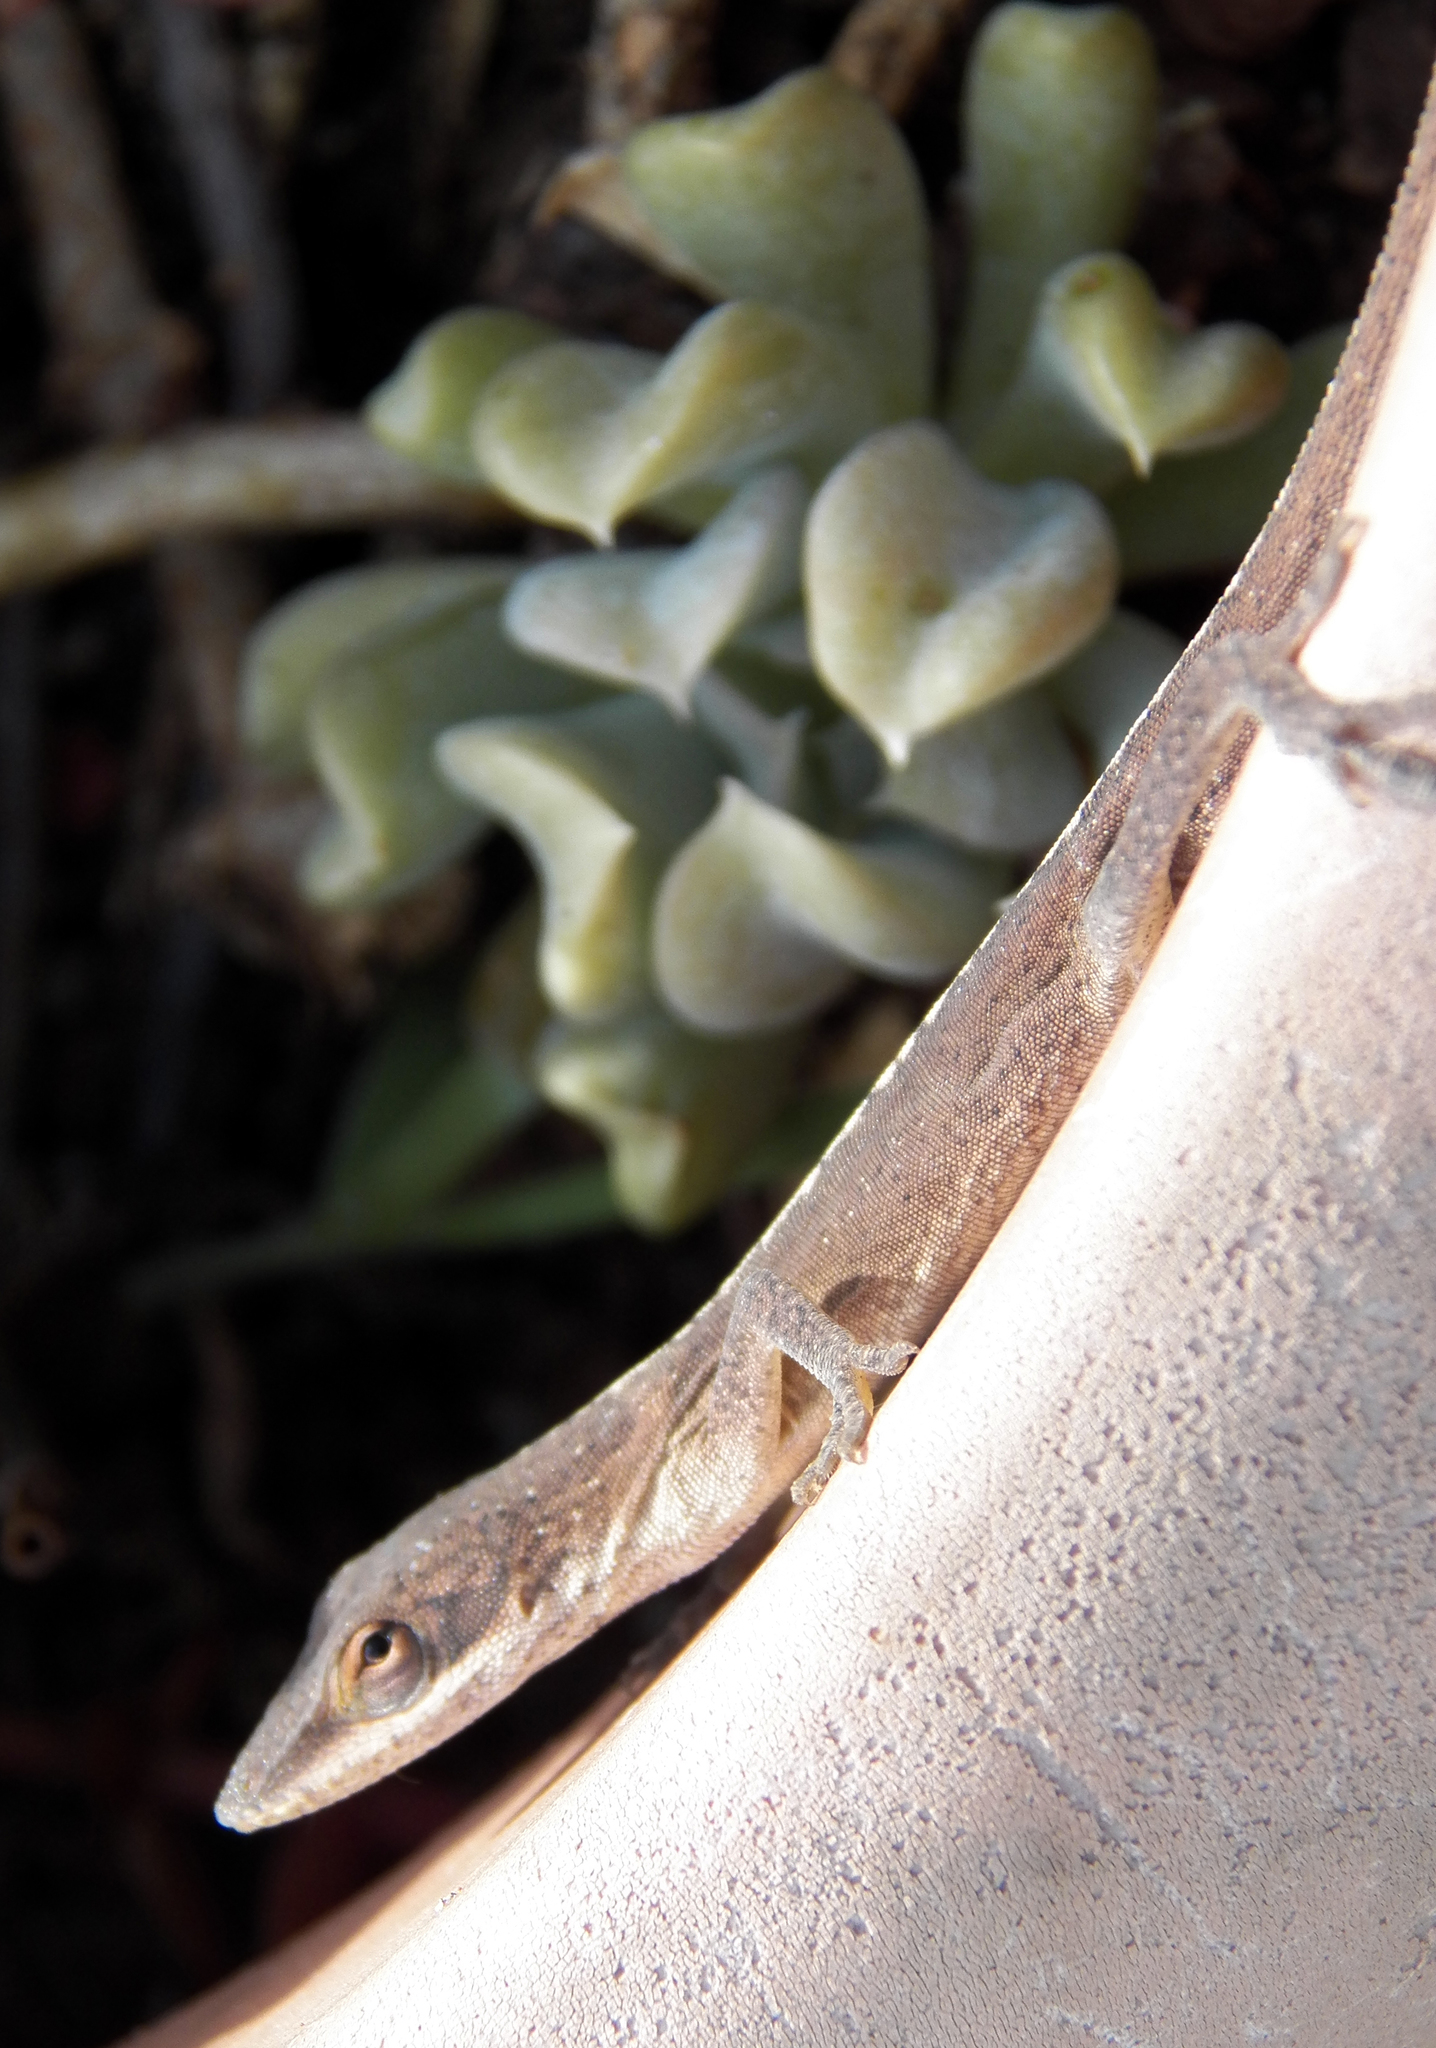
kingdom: Animalia
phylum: Chordata
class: Squamata
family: Dactyloidae
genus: Anolis
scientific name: Anolis carolinensis
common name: Green anole
